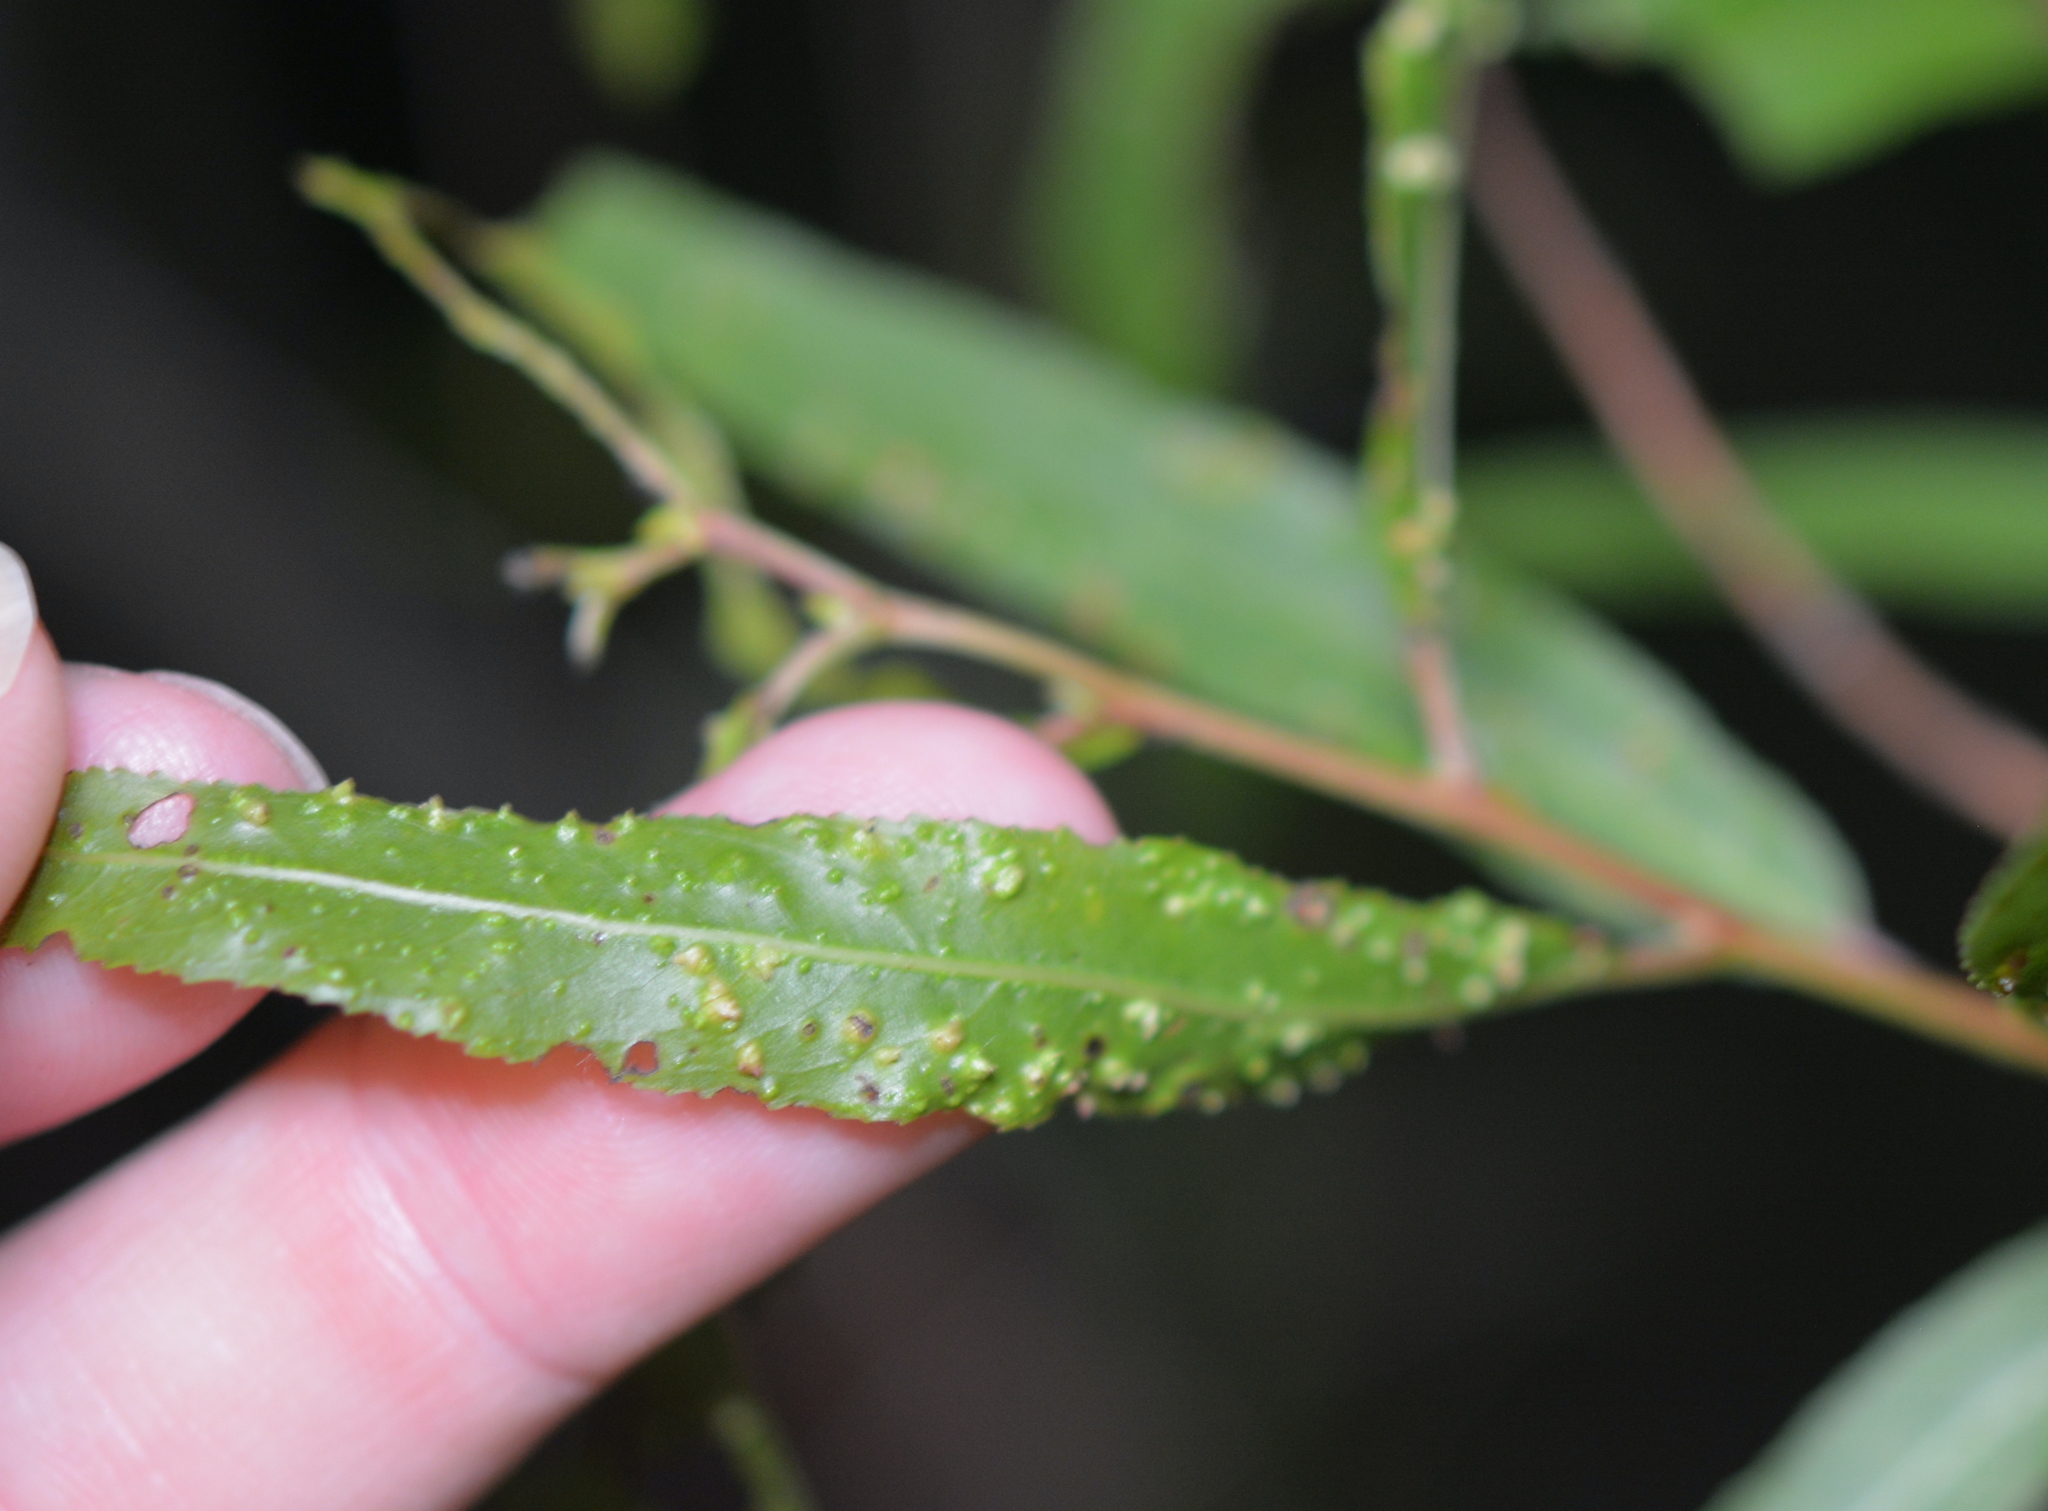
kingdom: Animalia
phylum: Arthropoda
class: Arachnida
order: Trombidiformes
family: Eriophyidae
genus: Aculus
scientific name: Aculus tetanothrix
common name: Willow bead gall mite
